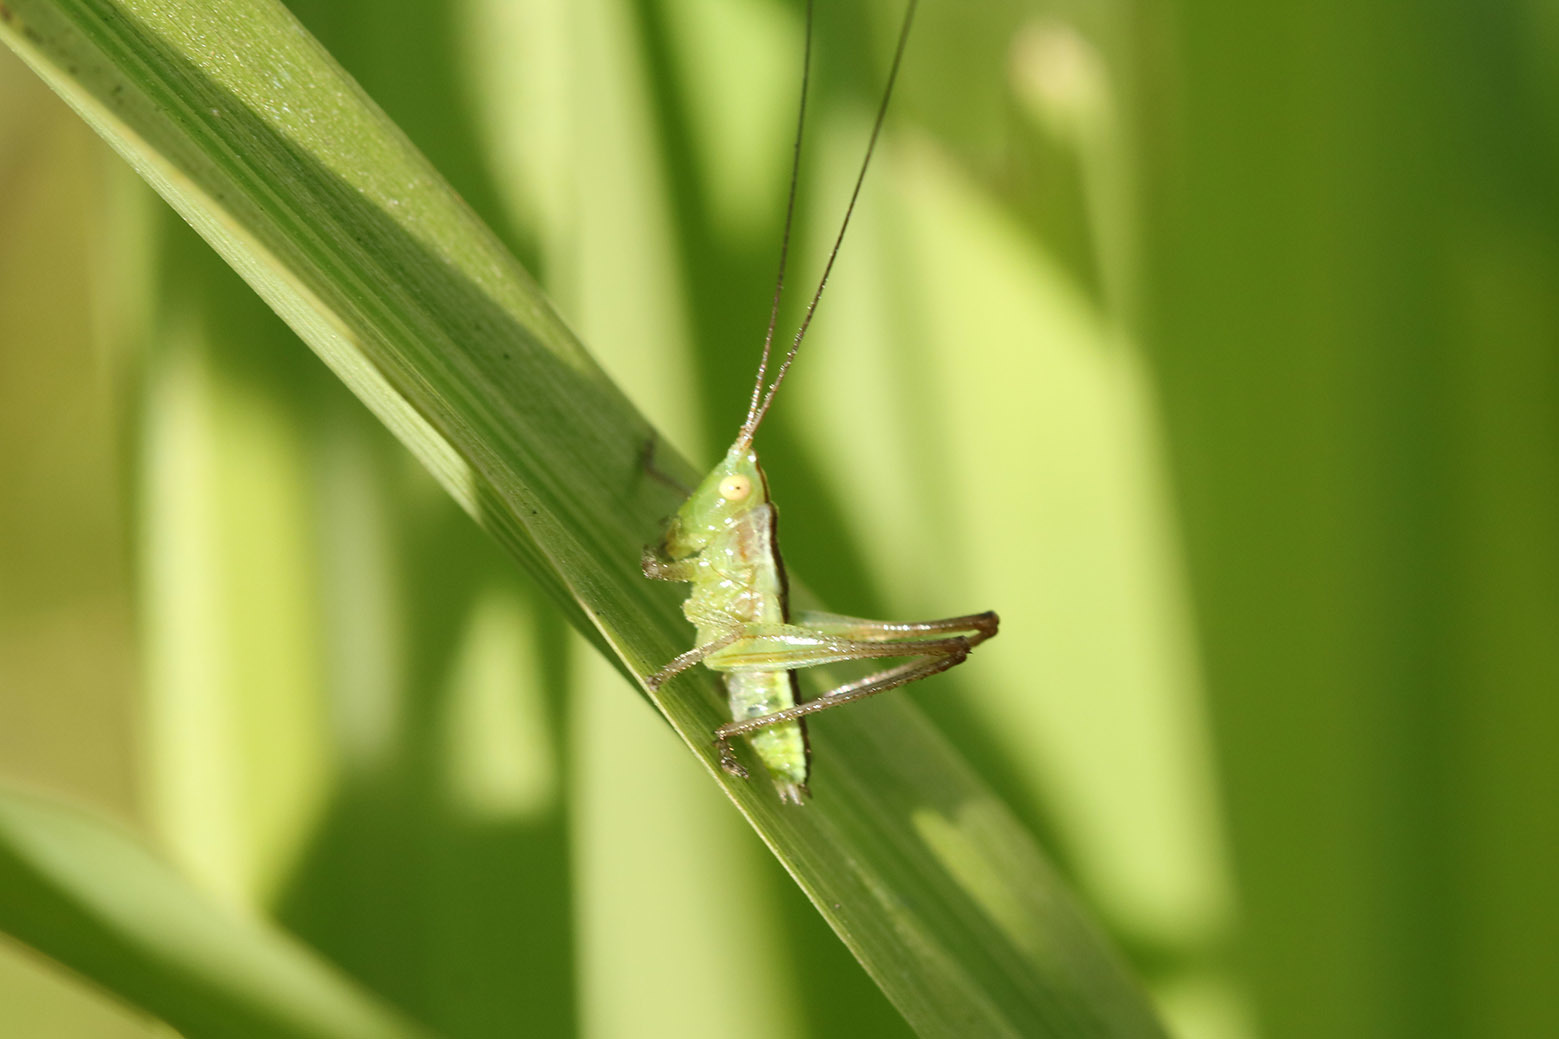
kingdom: Animalia
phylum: Arthropoda
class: Insecta
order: Orthoptera
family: Tettigoniidae
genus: Conocephalus
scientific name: Conocephalus longipes
